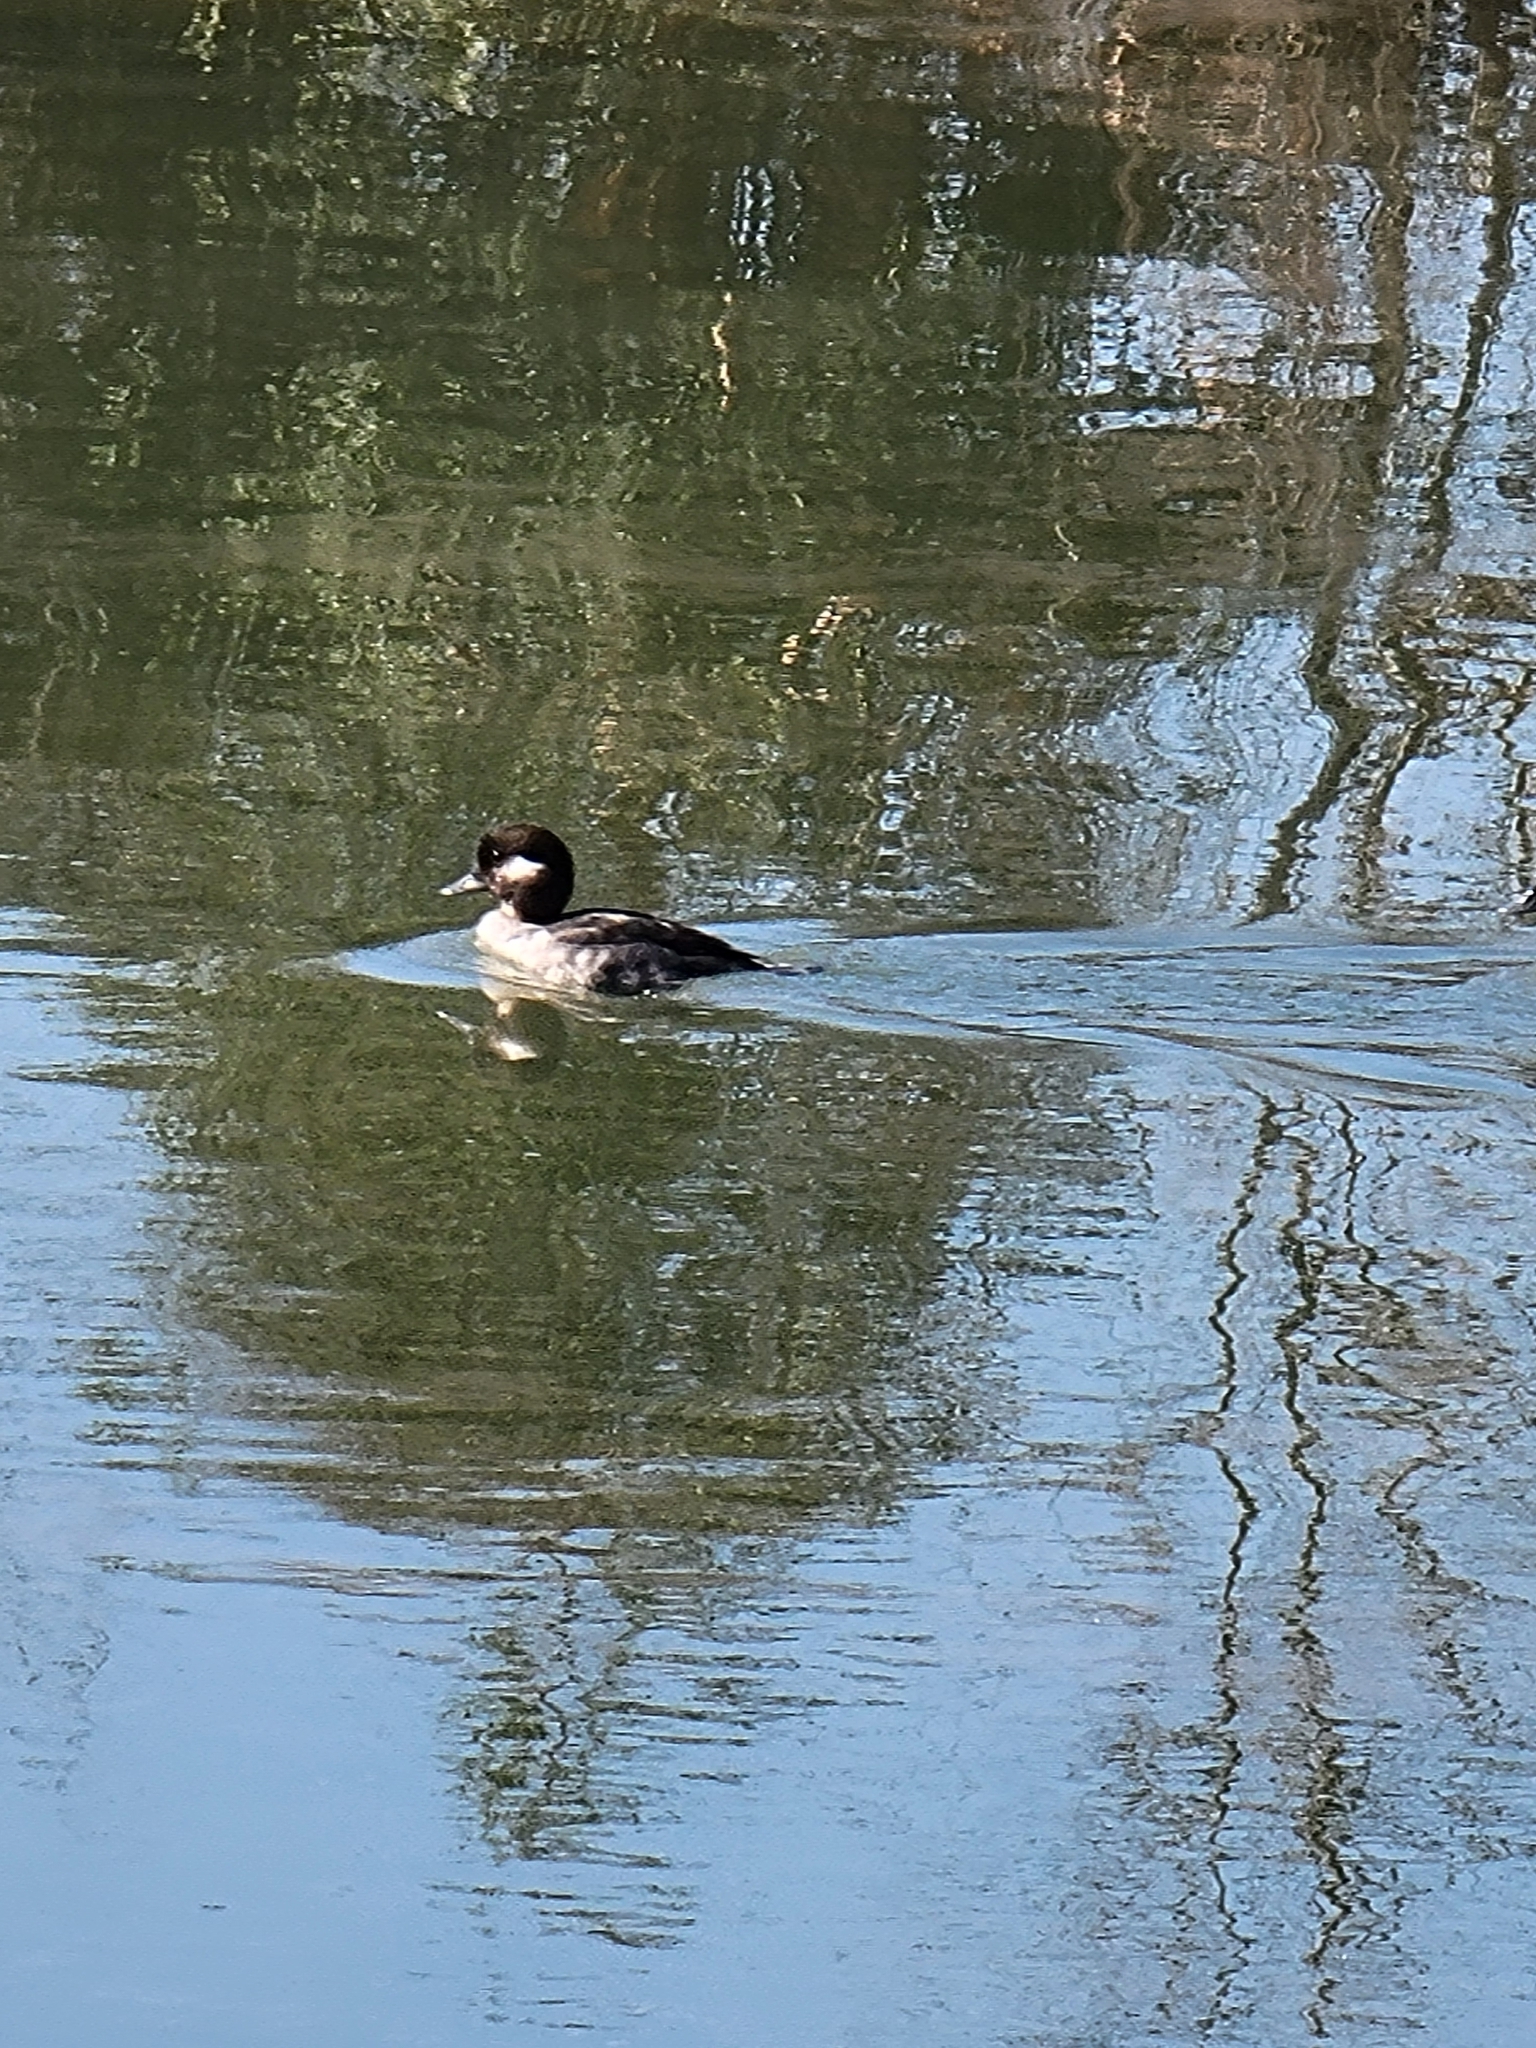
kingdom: Animalia
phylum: Chordata
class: Aves
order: Anseriformes
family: Anatidae
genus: Bucephala
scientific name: Bucephala albeola
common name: Bufflehead
